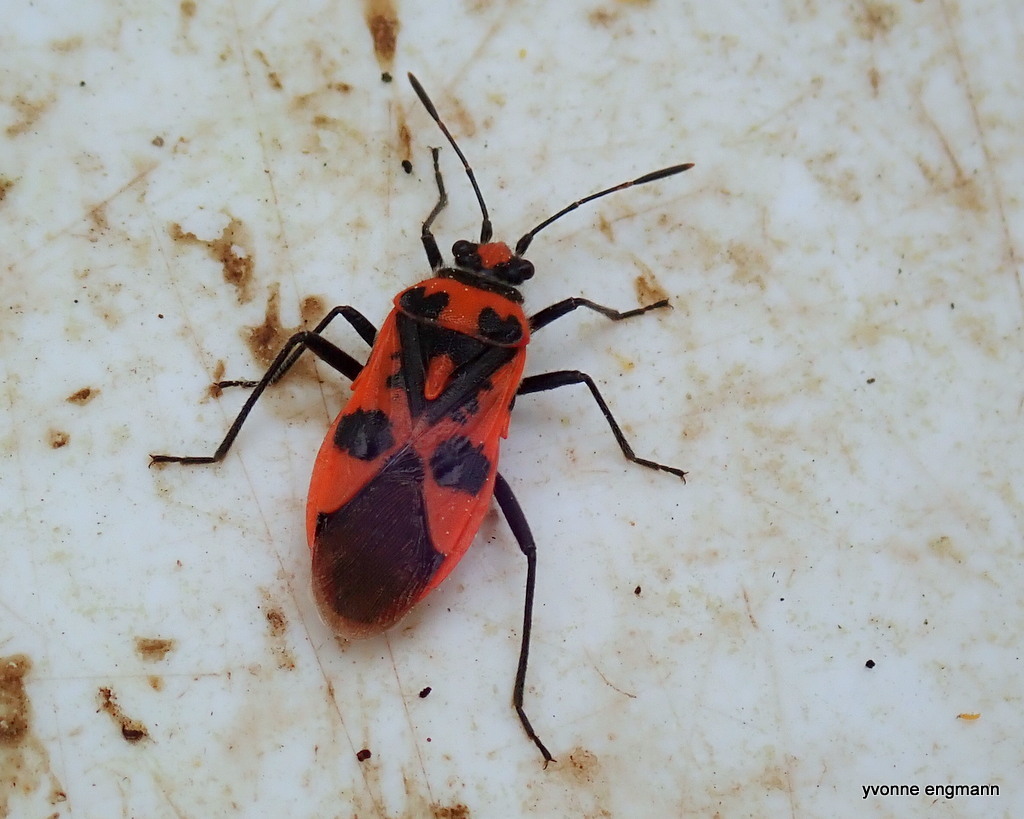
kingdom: Animalia
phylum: Arthropoda
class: Insecta
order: Hemiptera
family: Rhopalidae
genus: Corizus
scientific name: Corizus hyoscyami
